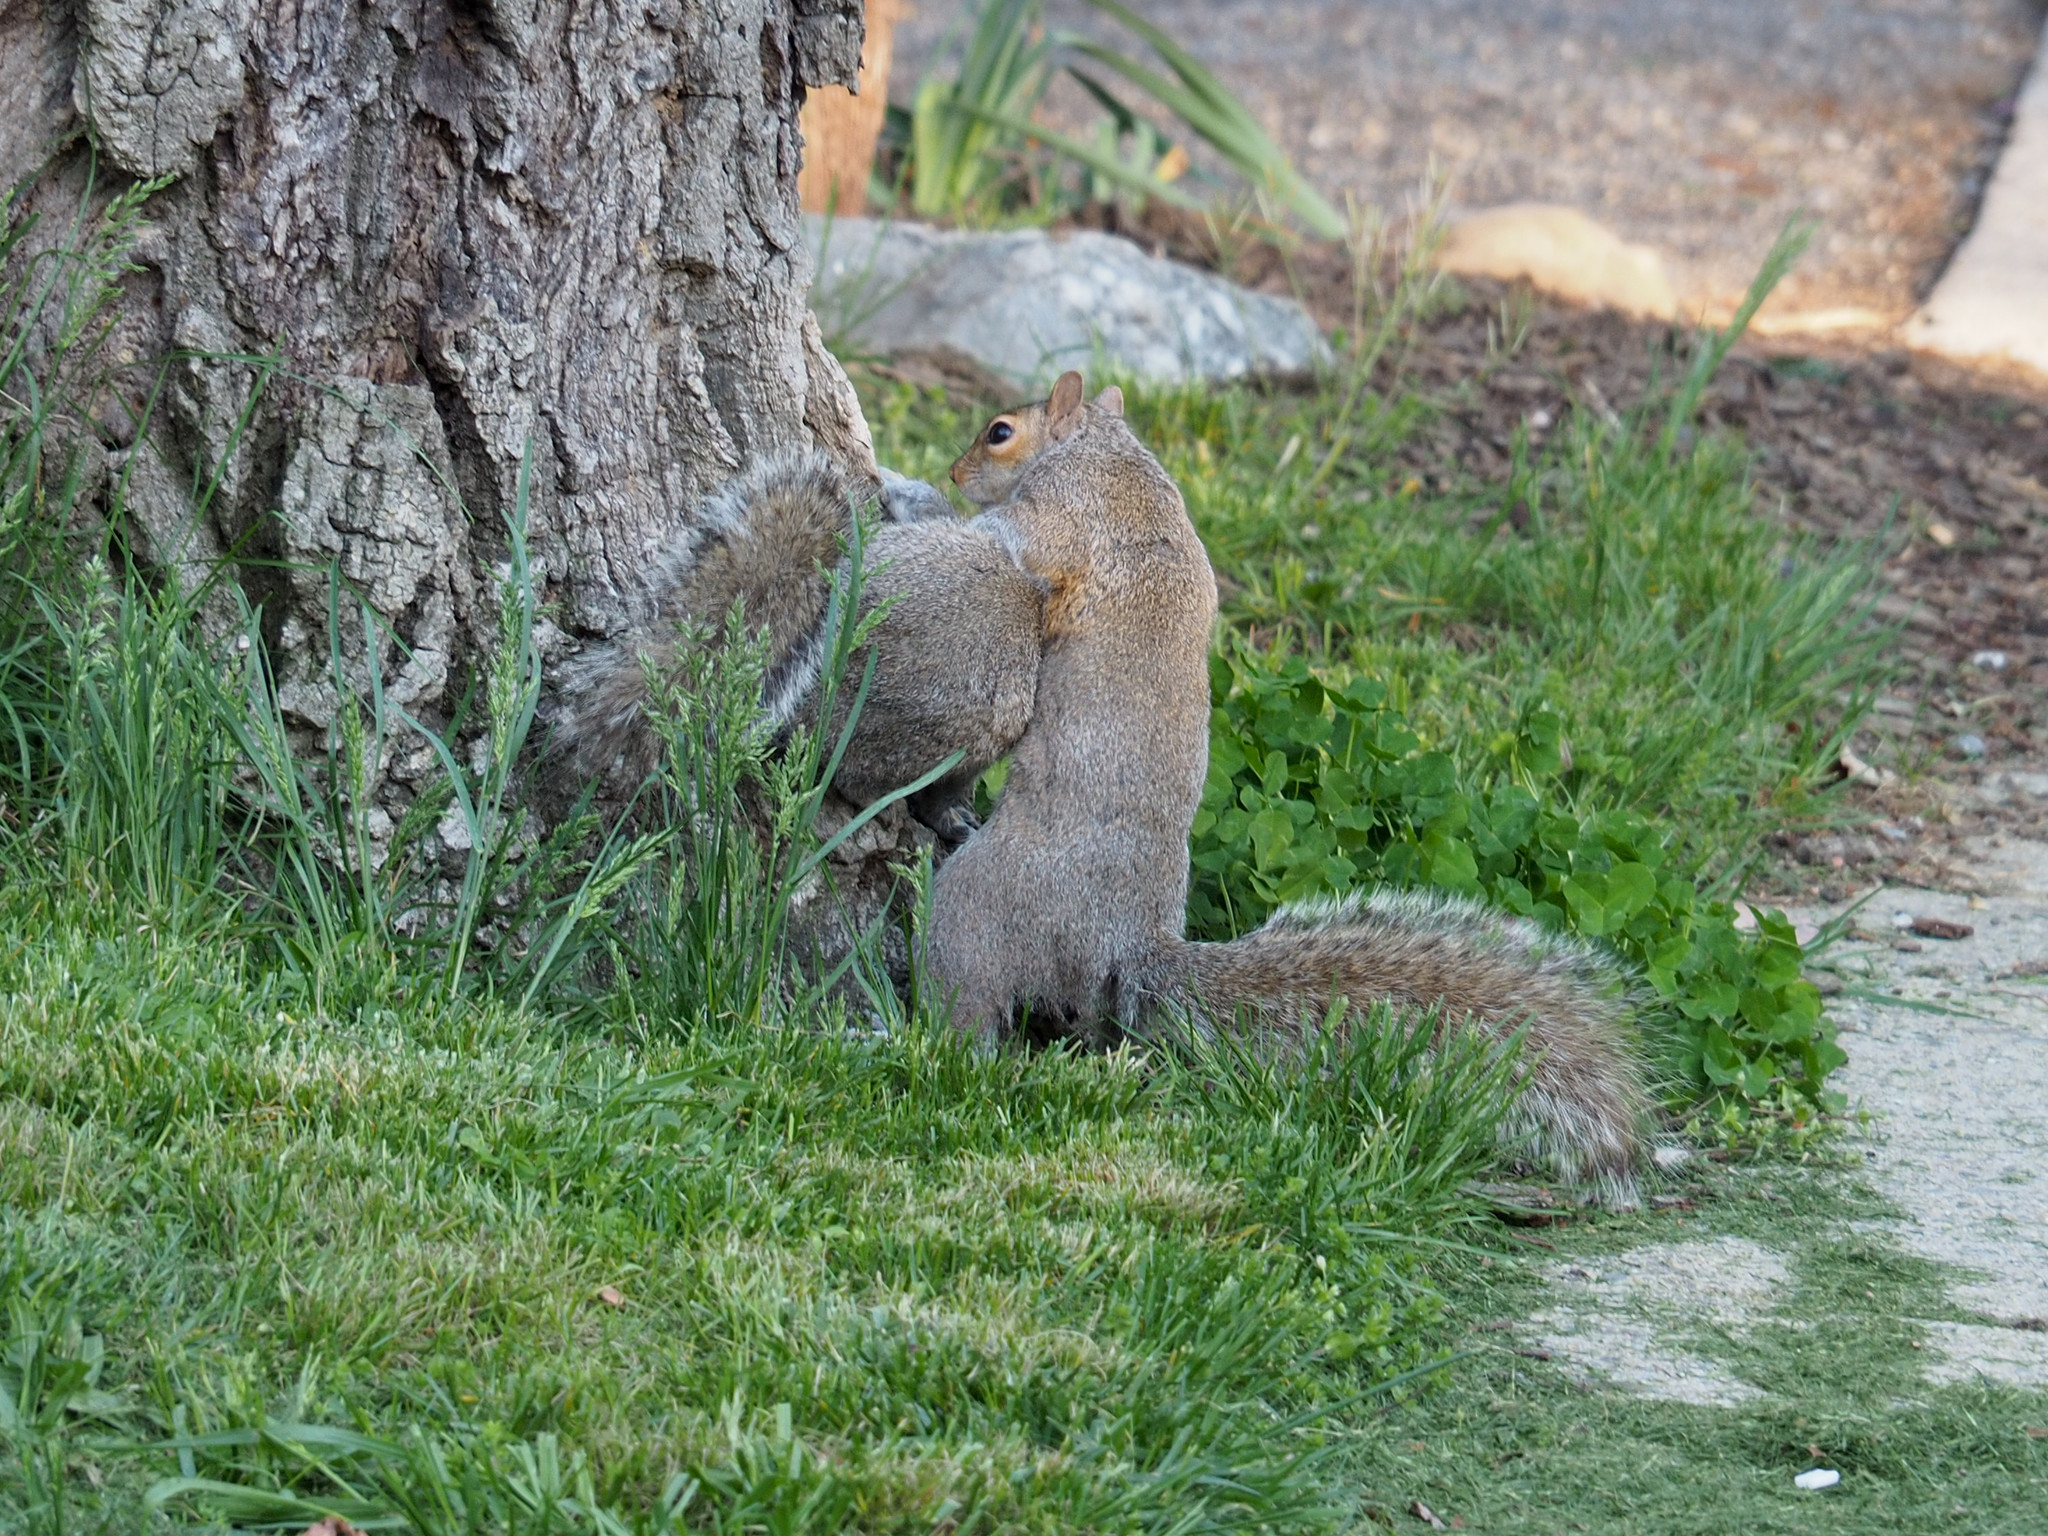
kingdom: Animalia
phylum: Chordata
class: Mammalia
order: Rodentia
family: Sciuridae
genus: Sciurus
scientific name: Sciurus carolinensis
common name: Eastern gray squirrel
